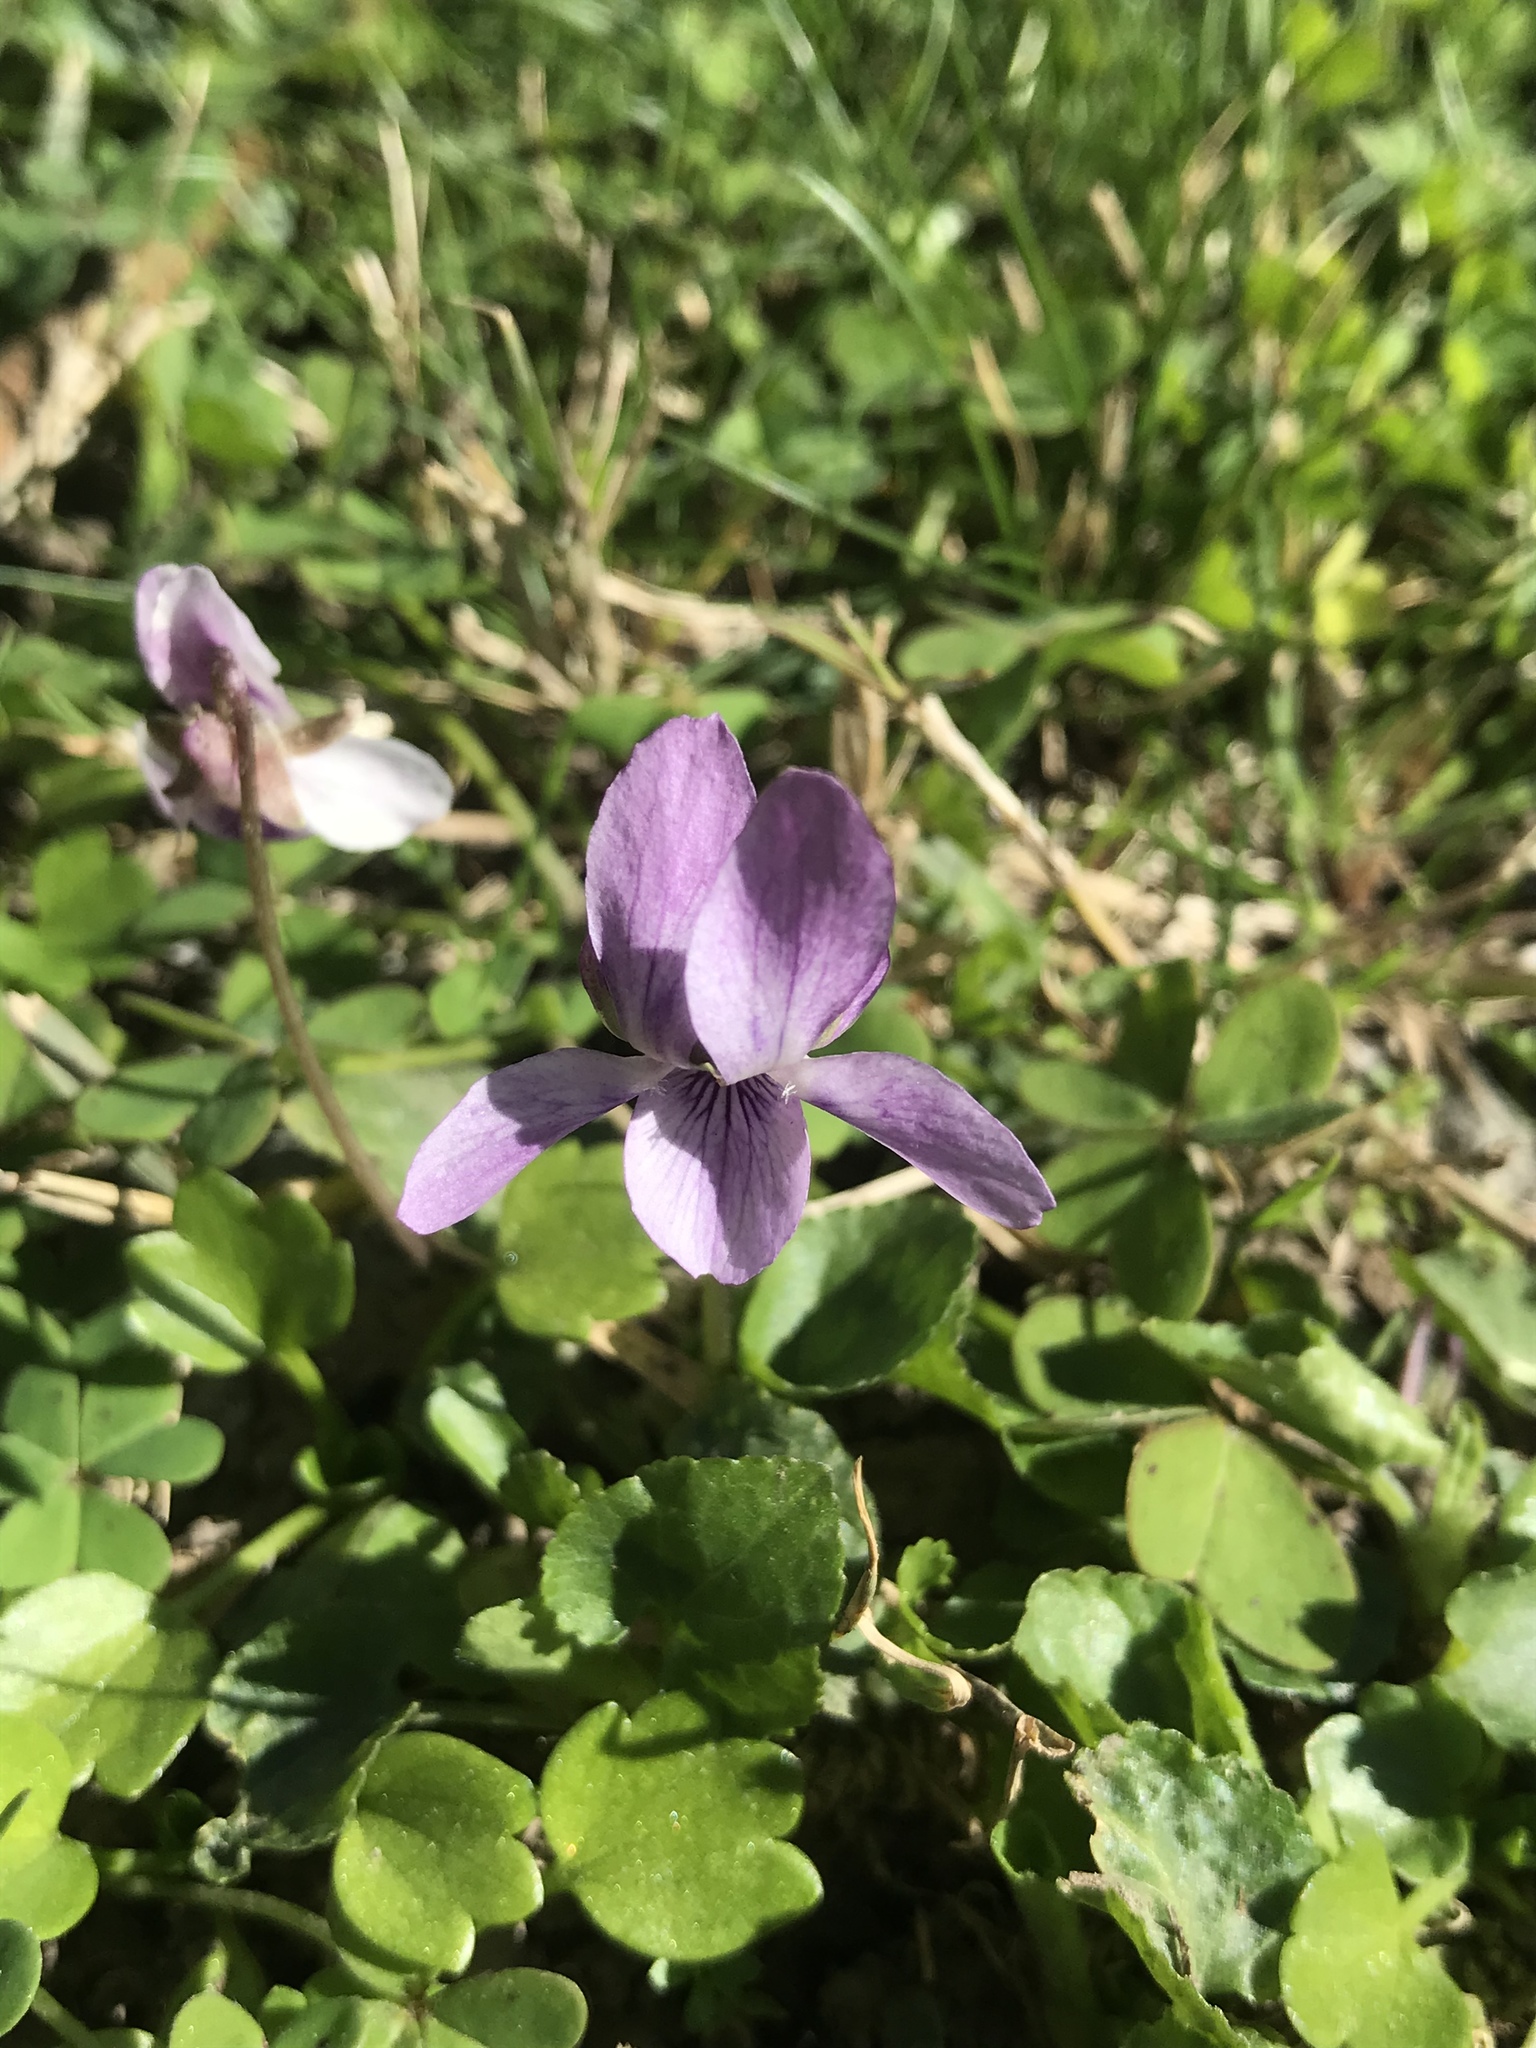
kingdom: Plantae
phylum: Tracheophyta
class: Magnoliopsida
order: Malpighiales
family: Violaceae
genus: Viola
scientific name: Viola odorata
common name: Sweet violet
